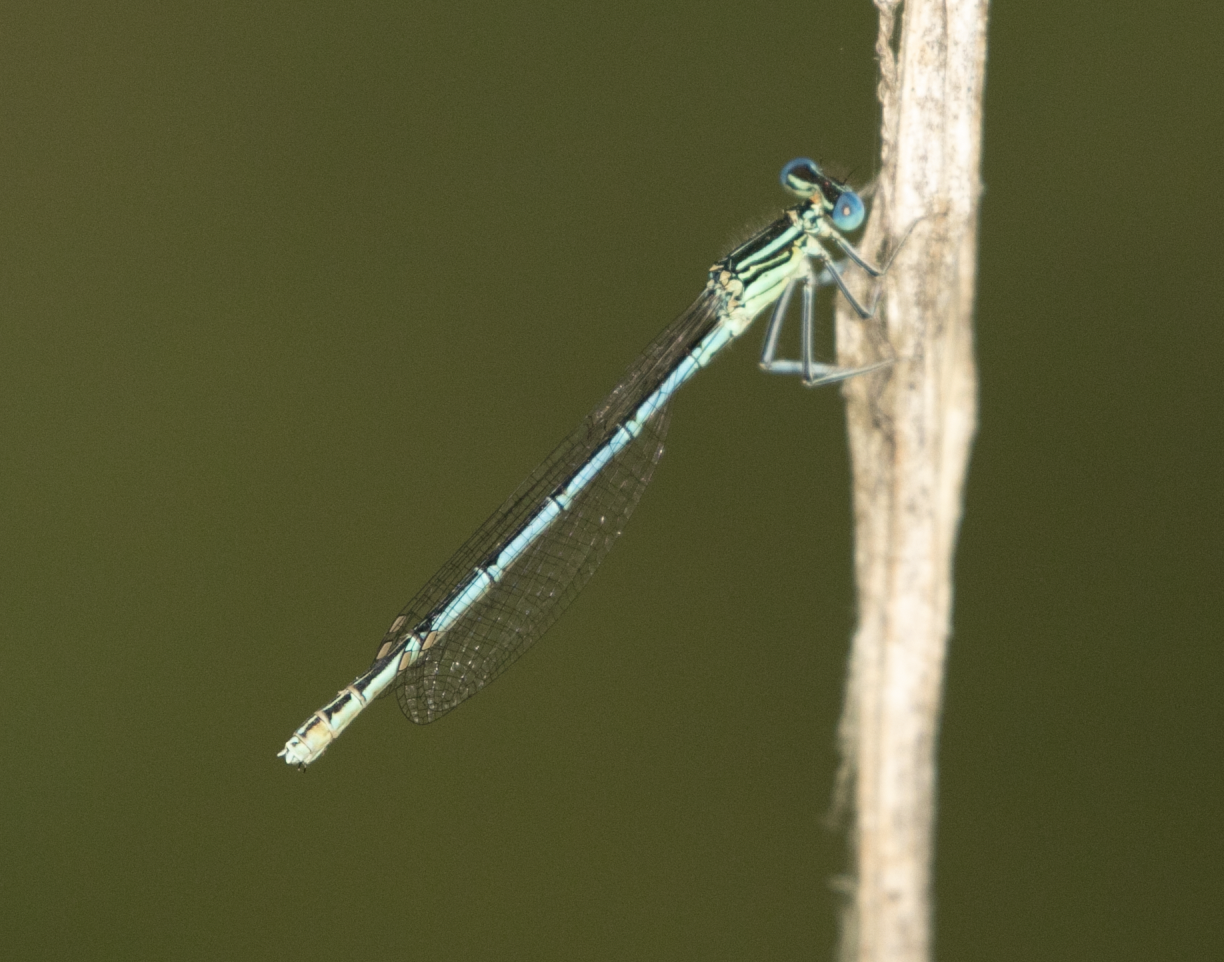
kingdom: Animalia
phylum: Arthropoda
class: Insecta
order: Odonata
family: Platycnemididae
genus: Platycnemis
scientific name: Platycnemis pennipes
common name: White-legged damselfly
